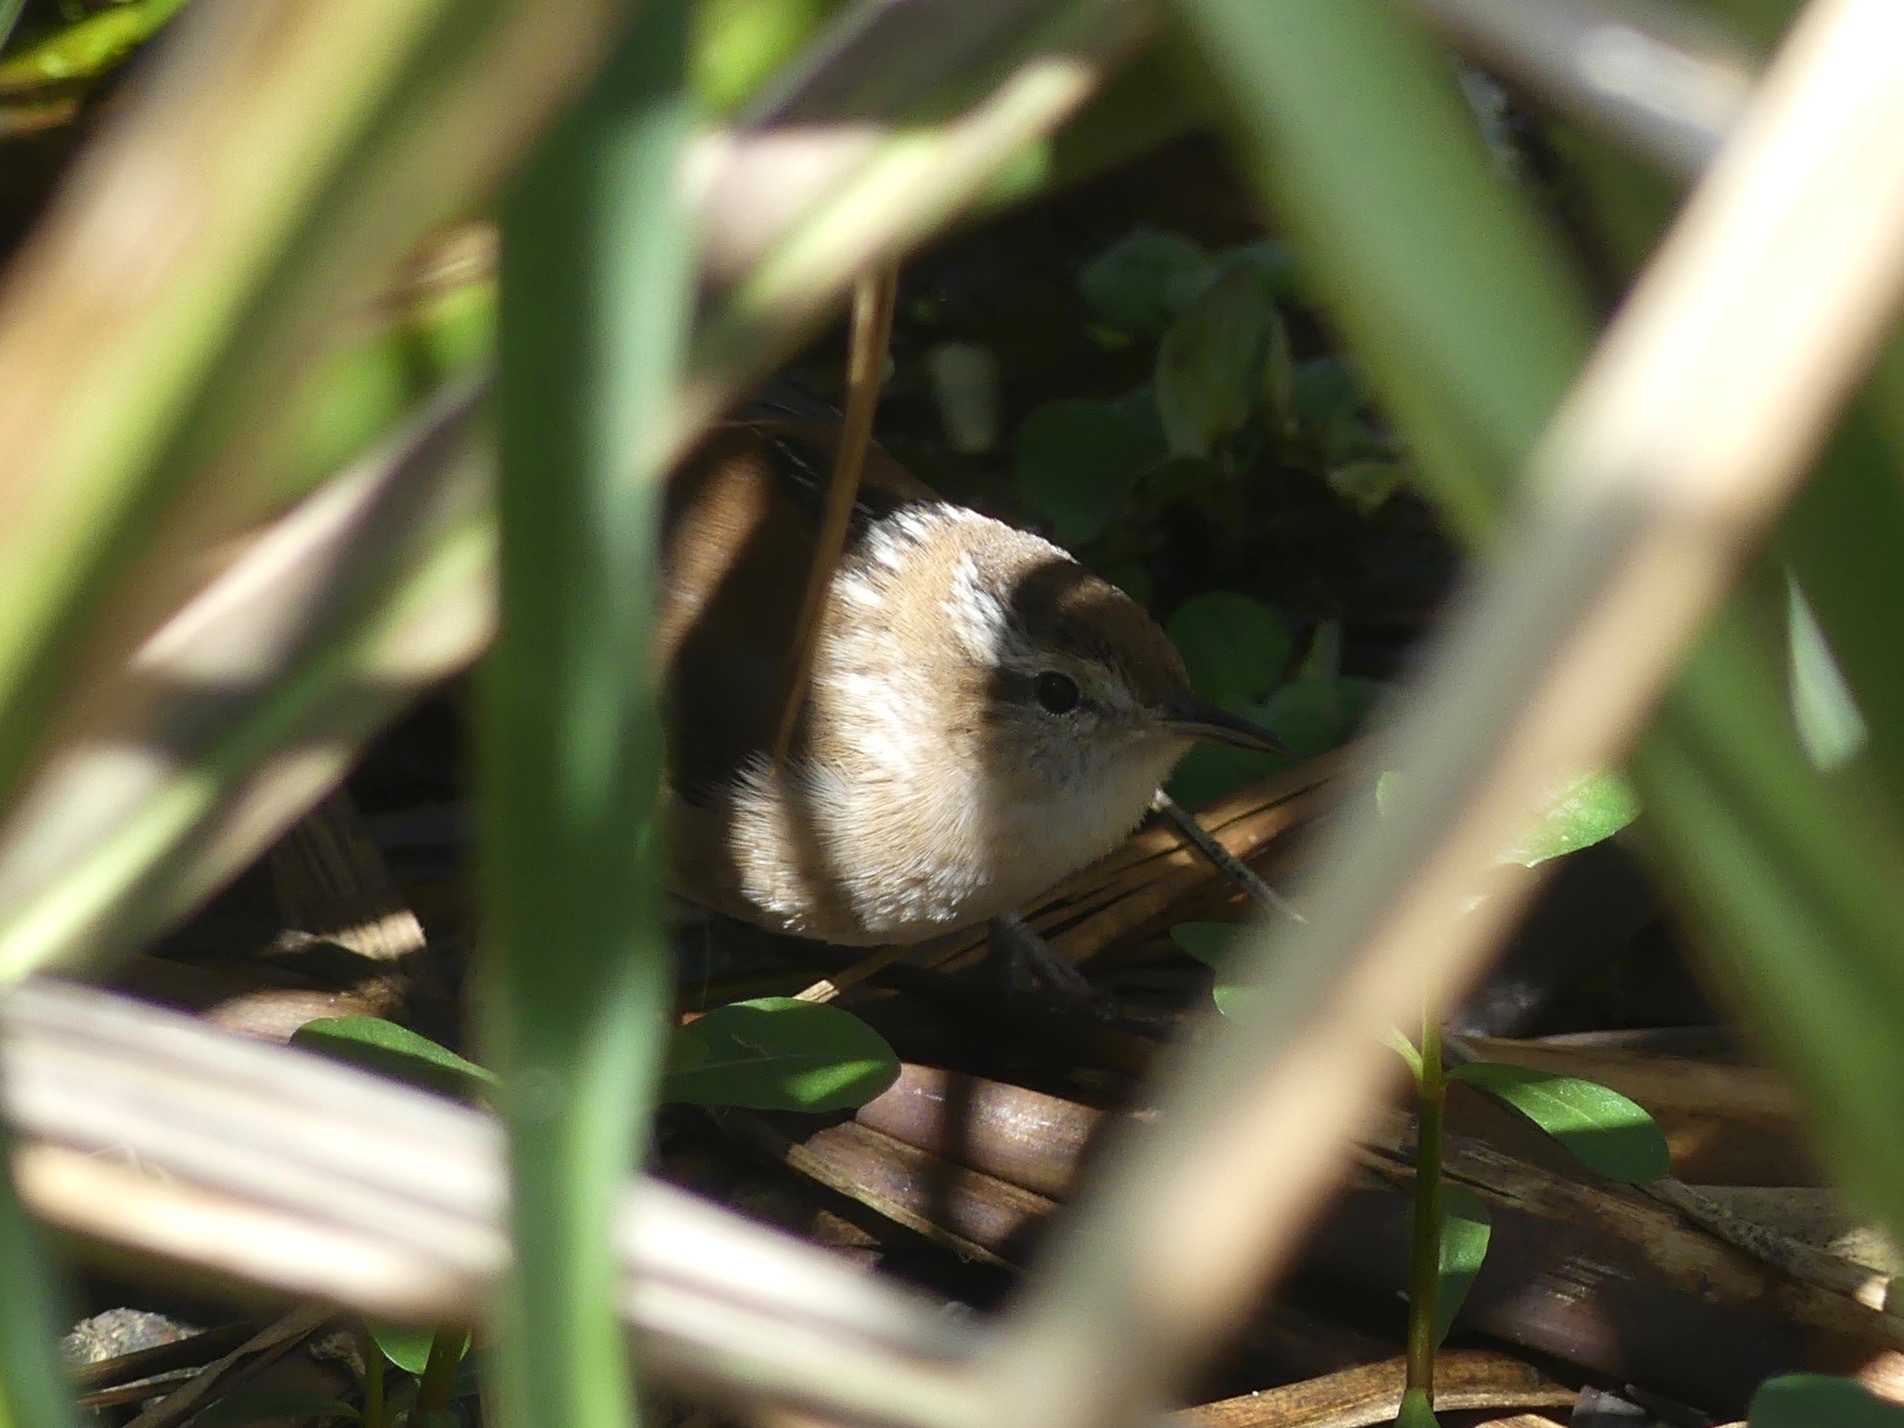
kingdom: Animalia
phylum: Chordata
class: Aves
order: Passeriformes
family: Troglodytidae
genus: Cistothorus
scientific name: Cistothorus palustris
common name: Marsh wren
